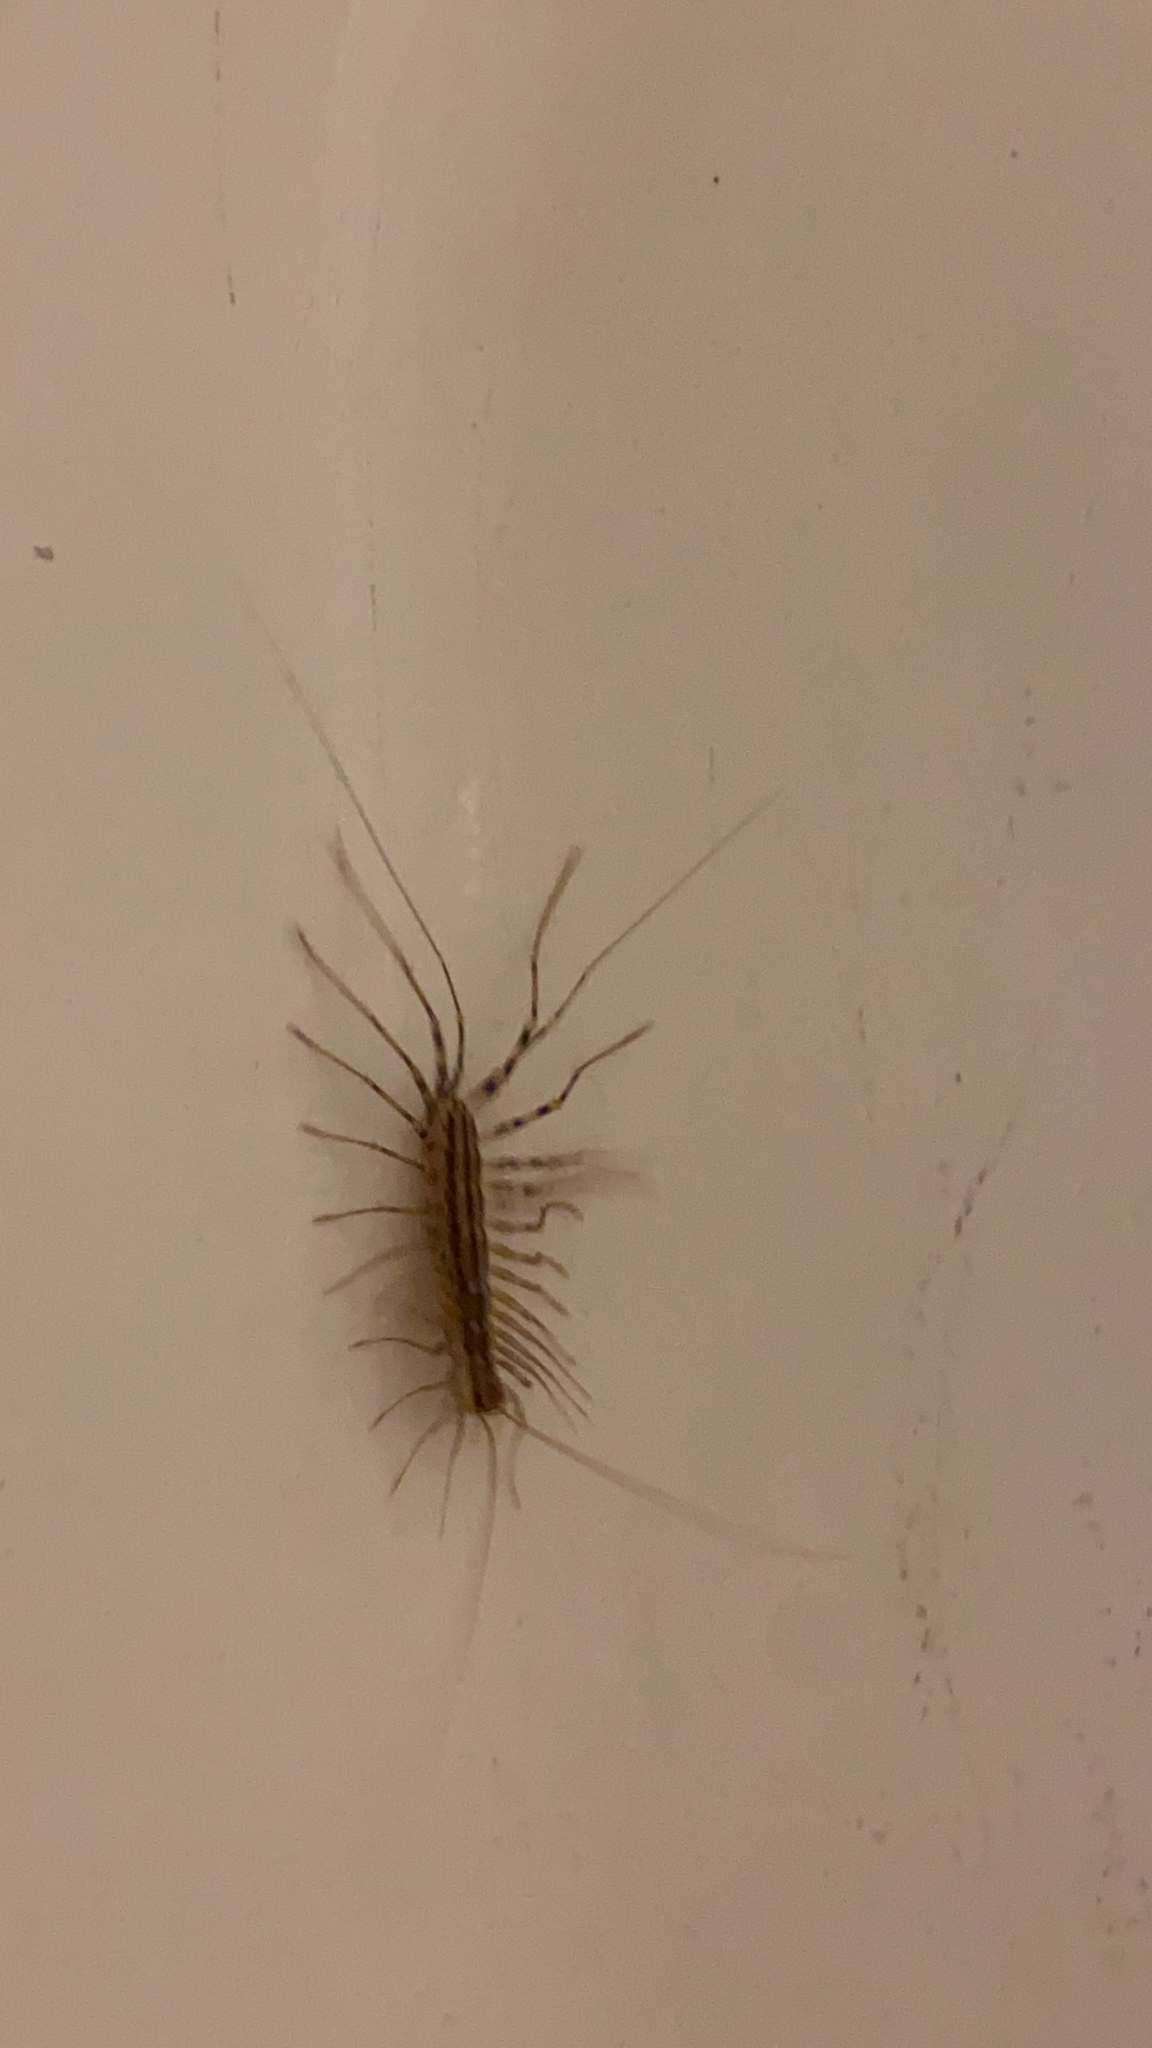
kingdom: Animalia
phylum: Arthropoda
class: Chilopoda
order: Scutigeromorpha
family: Scutigeridae
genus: Scutigera
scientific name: Scutigera coleoptrata
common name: House centipede
